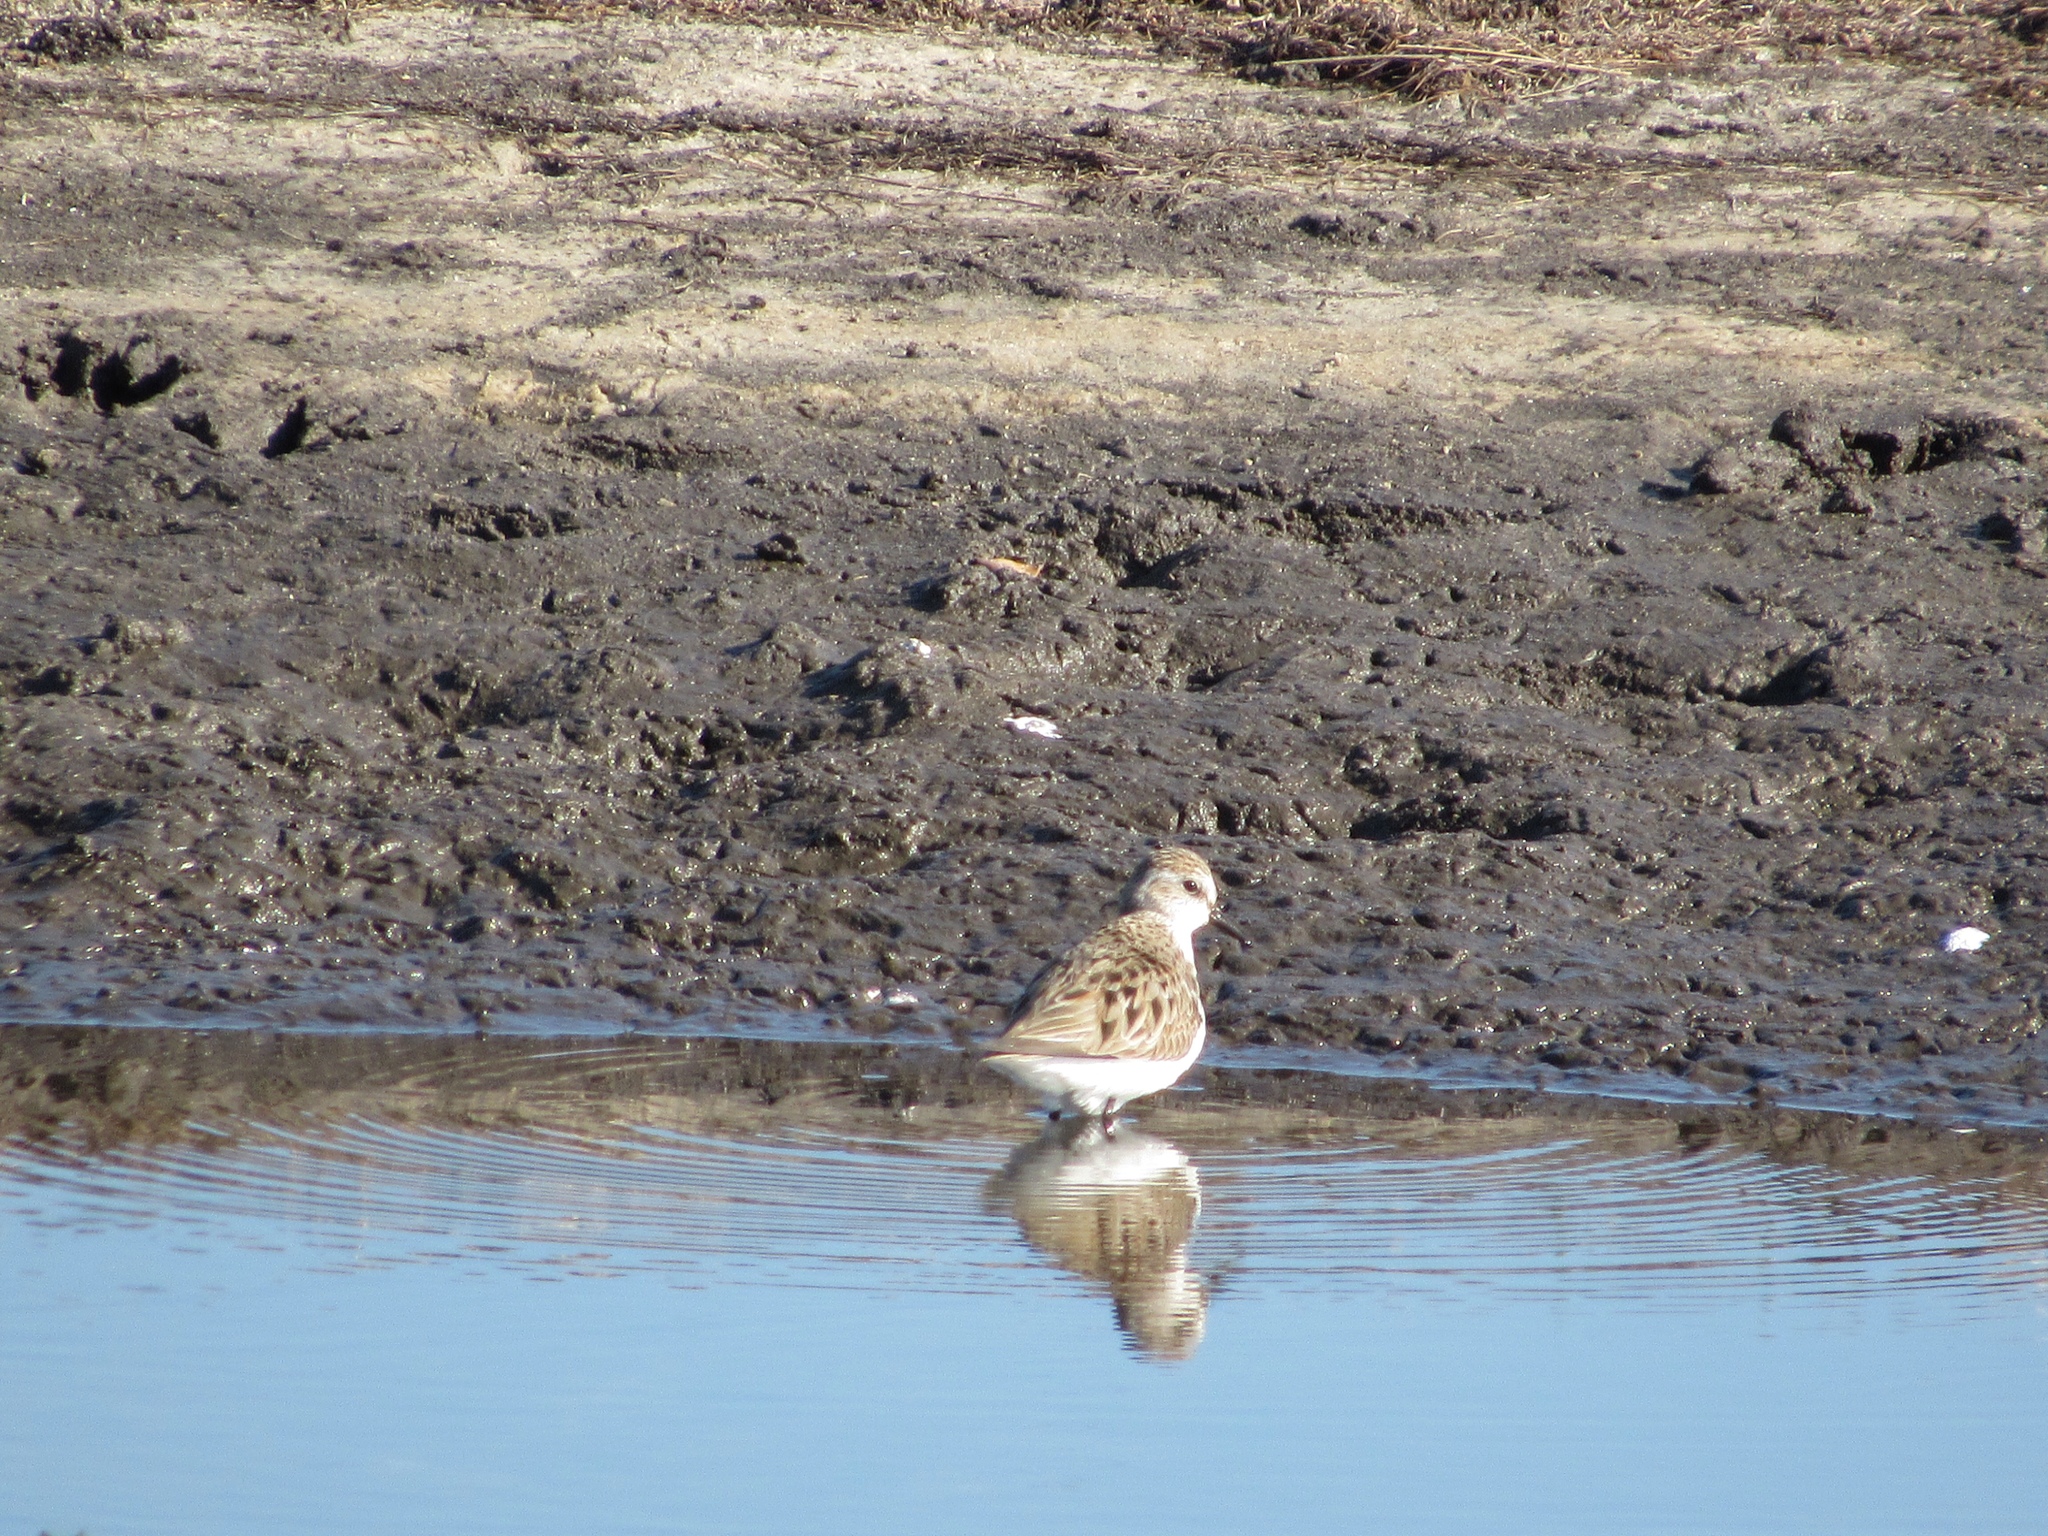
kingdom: Animalia
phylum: Chordata
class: Aves
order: Charadriiformes
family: Scolopacidae
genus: Calidris
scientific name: Calidris pusilla
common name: Semipalmated sandpiper
